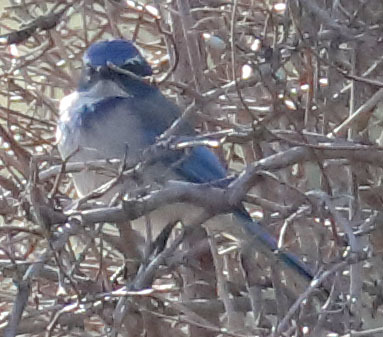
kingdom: Animalia
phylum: Chordata
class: Aves
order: Passeriformes
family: Corvidae
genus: Aphelocoma
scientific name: Aphelocoma californica
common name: California scrub-jay
